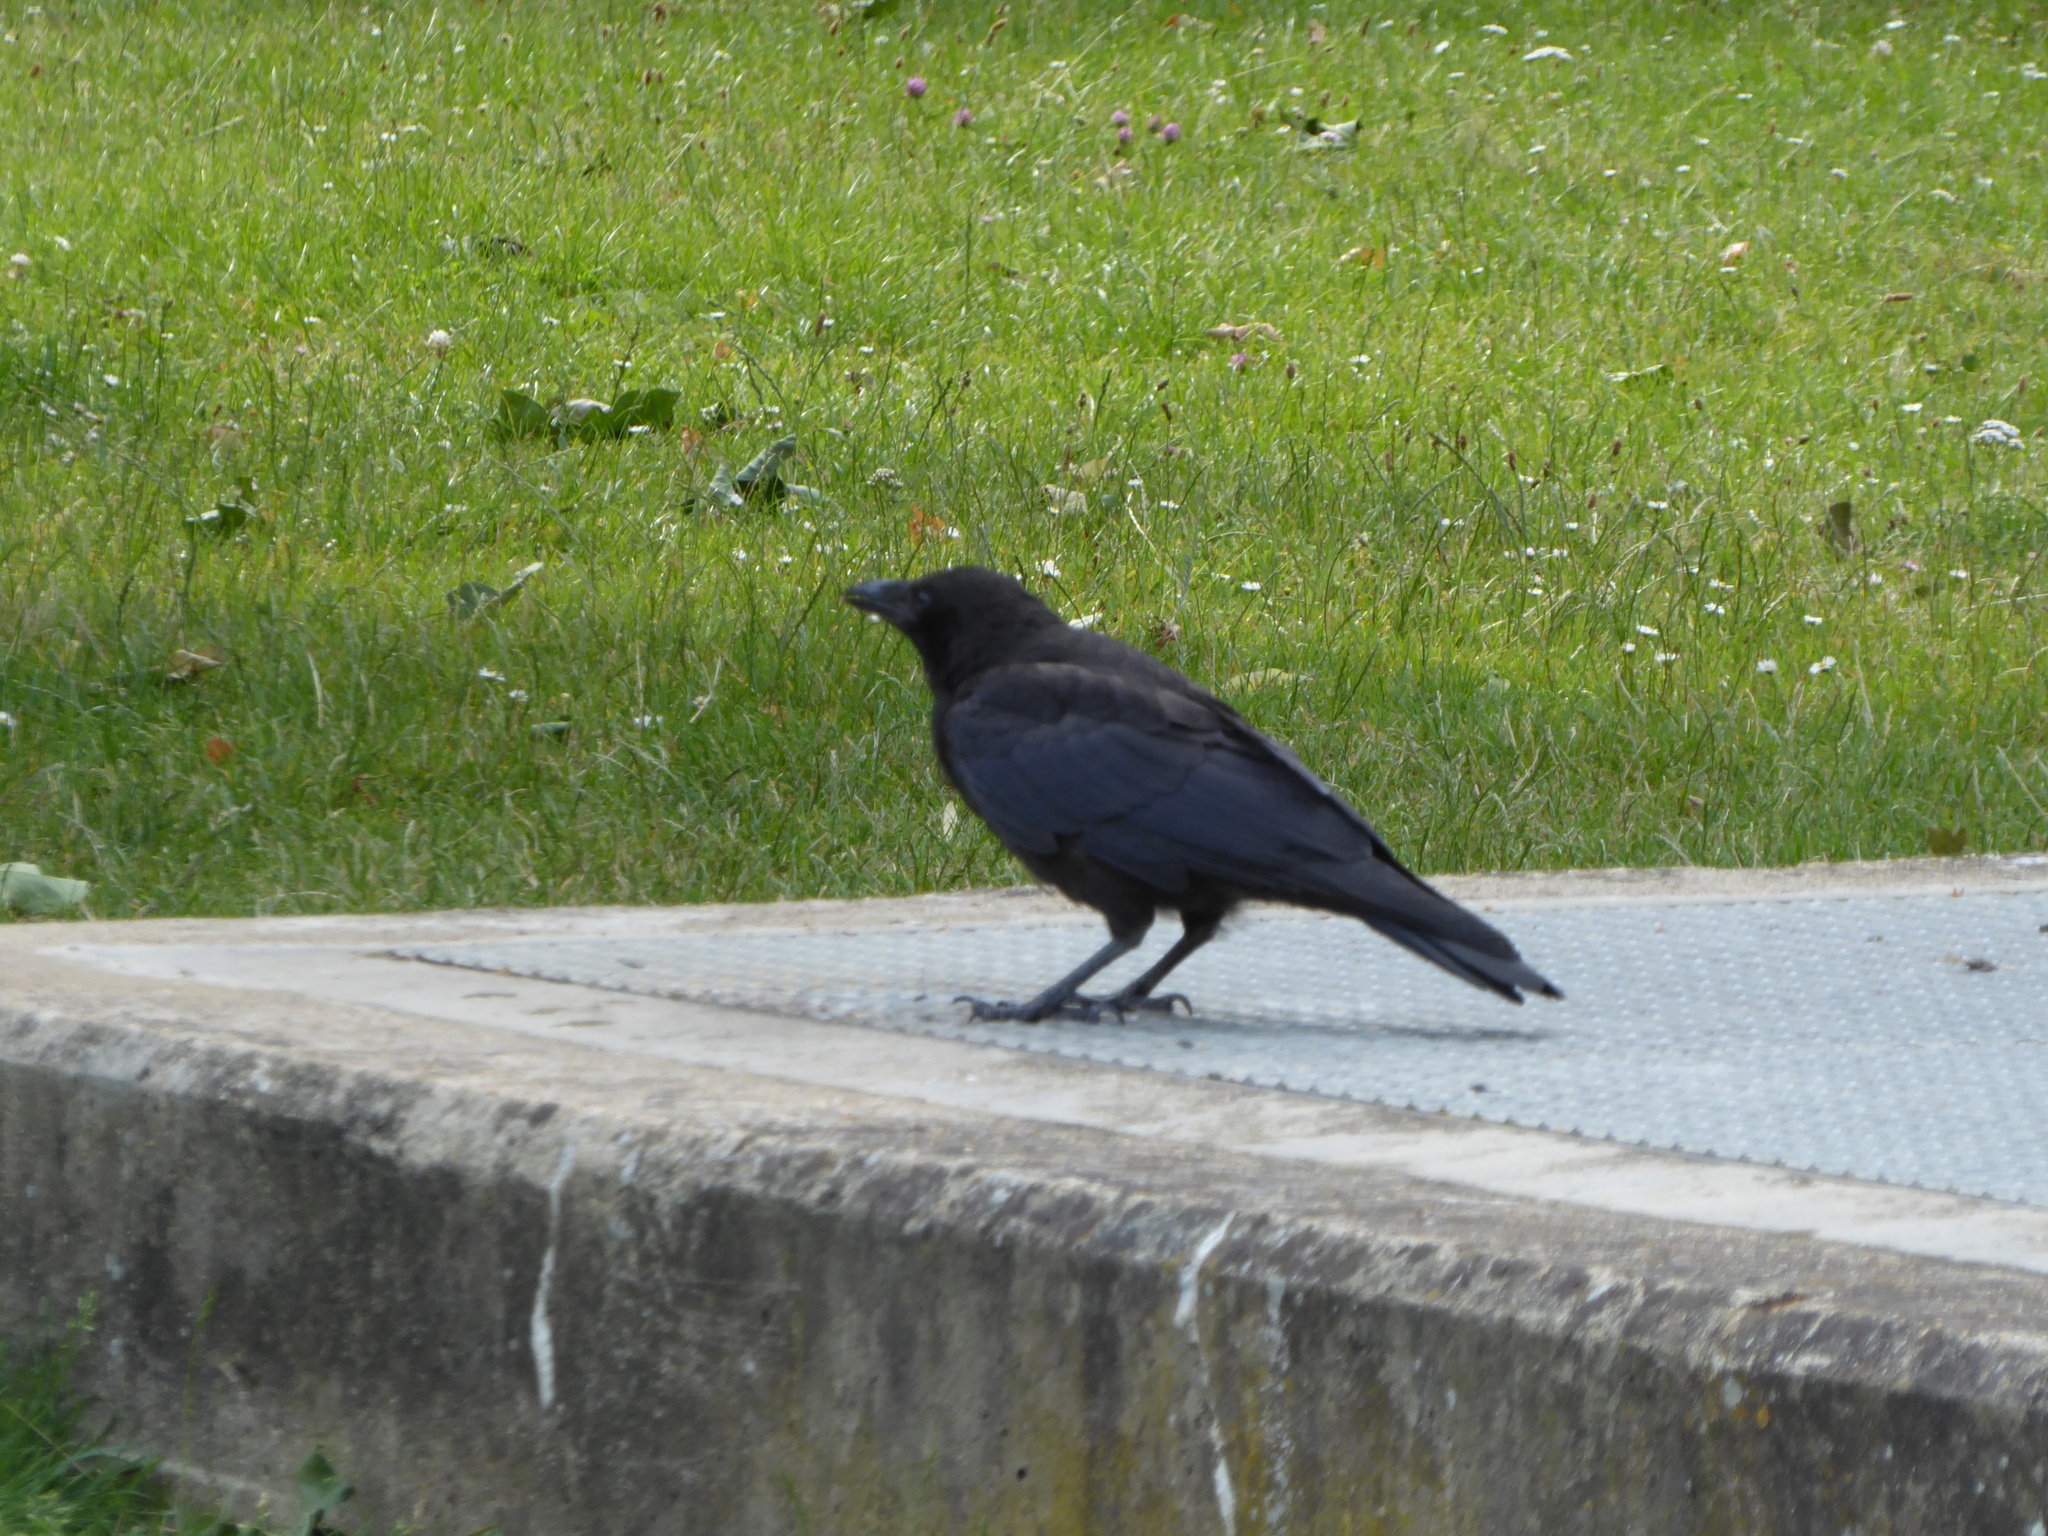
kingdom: Animalia
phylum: Chordata
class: Aves
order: Passeriformes
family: Corvidae
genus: Corvus
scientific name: Corvus corone
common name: Carrion crow
